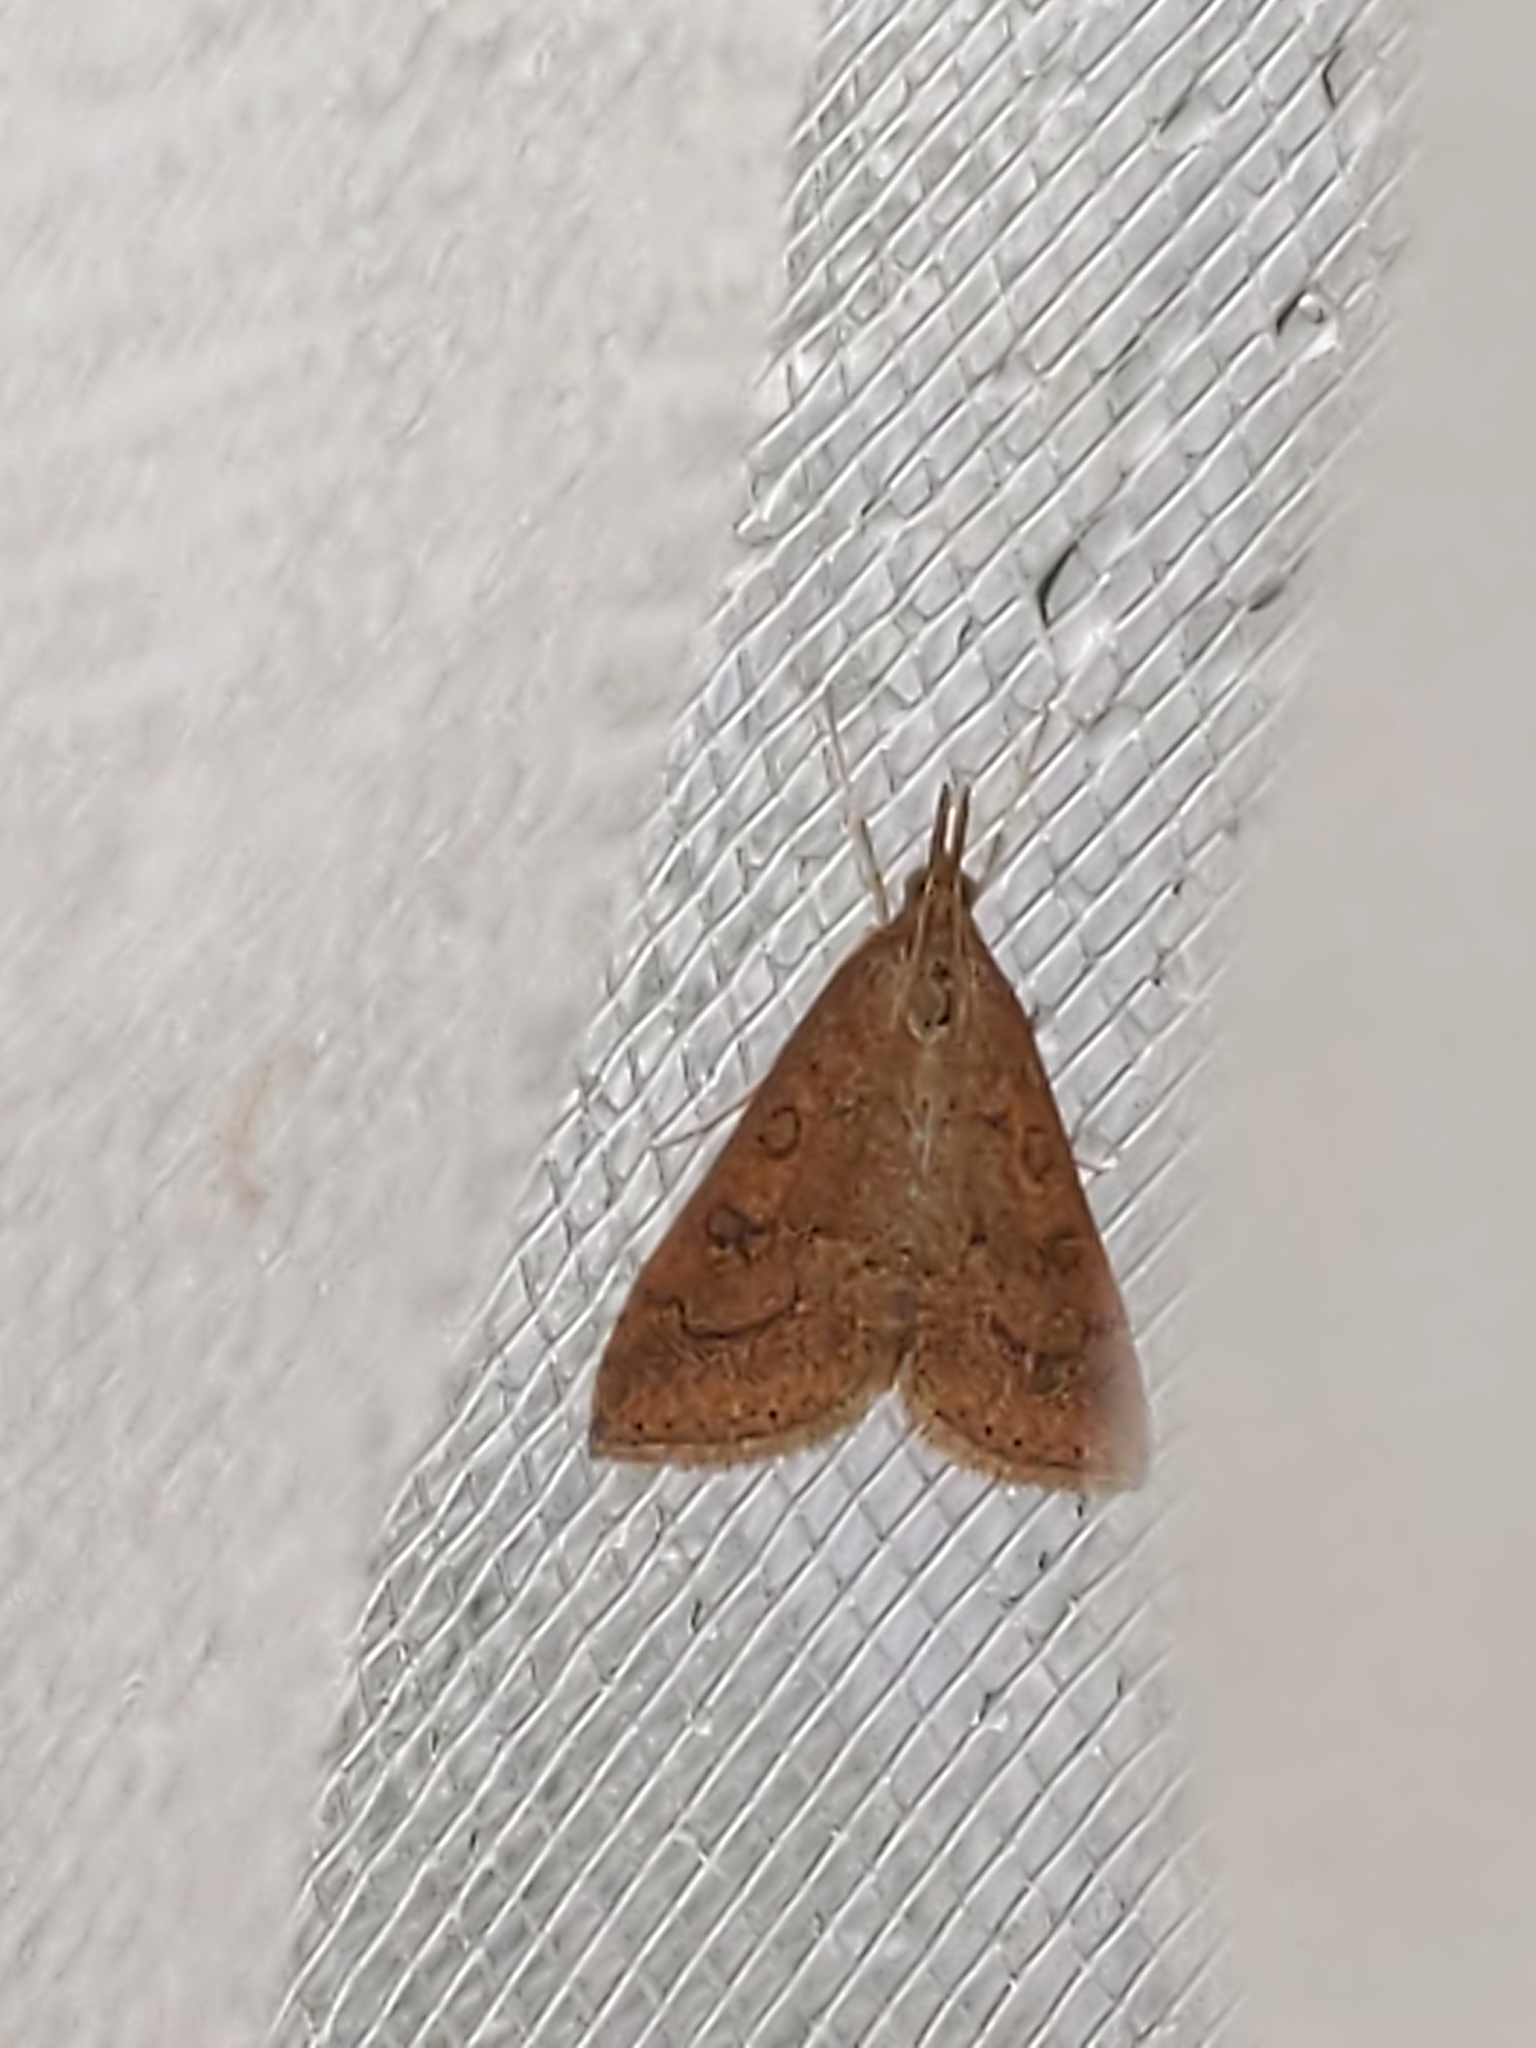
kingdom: Animalia
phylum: Arthropoda
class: Insecta
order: Lepidoptera
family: Crambidae
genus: Udea
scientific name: Udea rubigalis
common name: Celery leaftier moth
